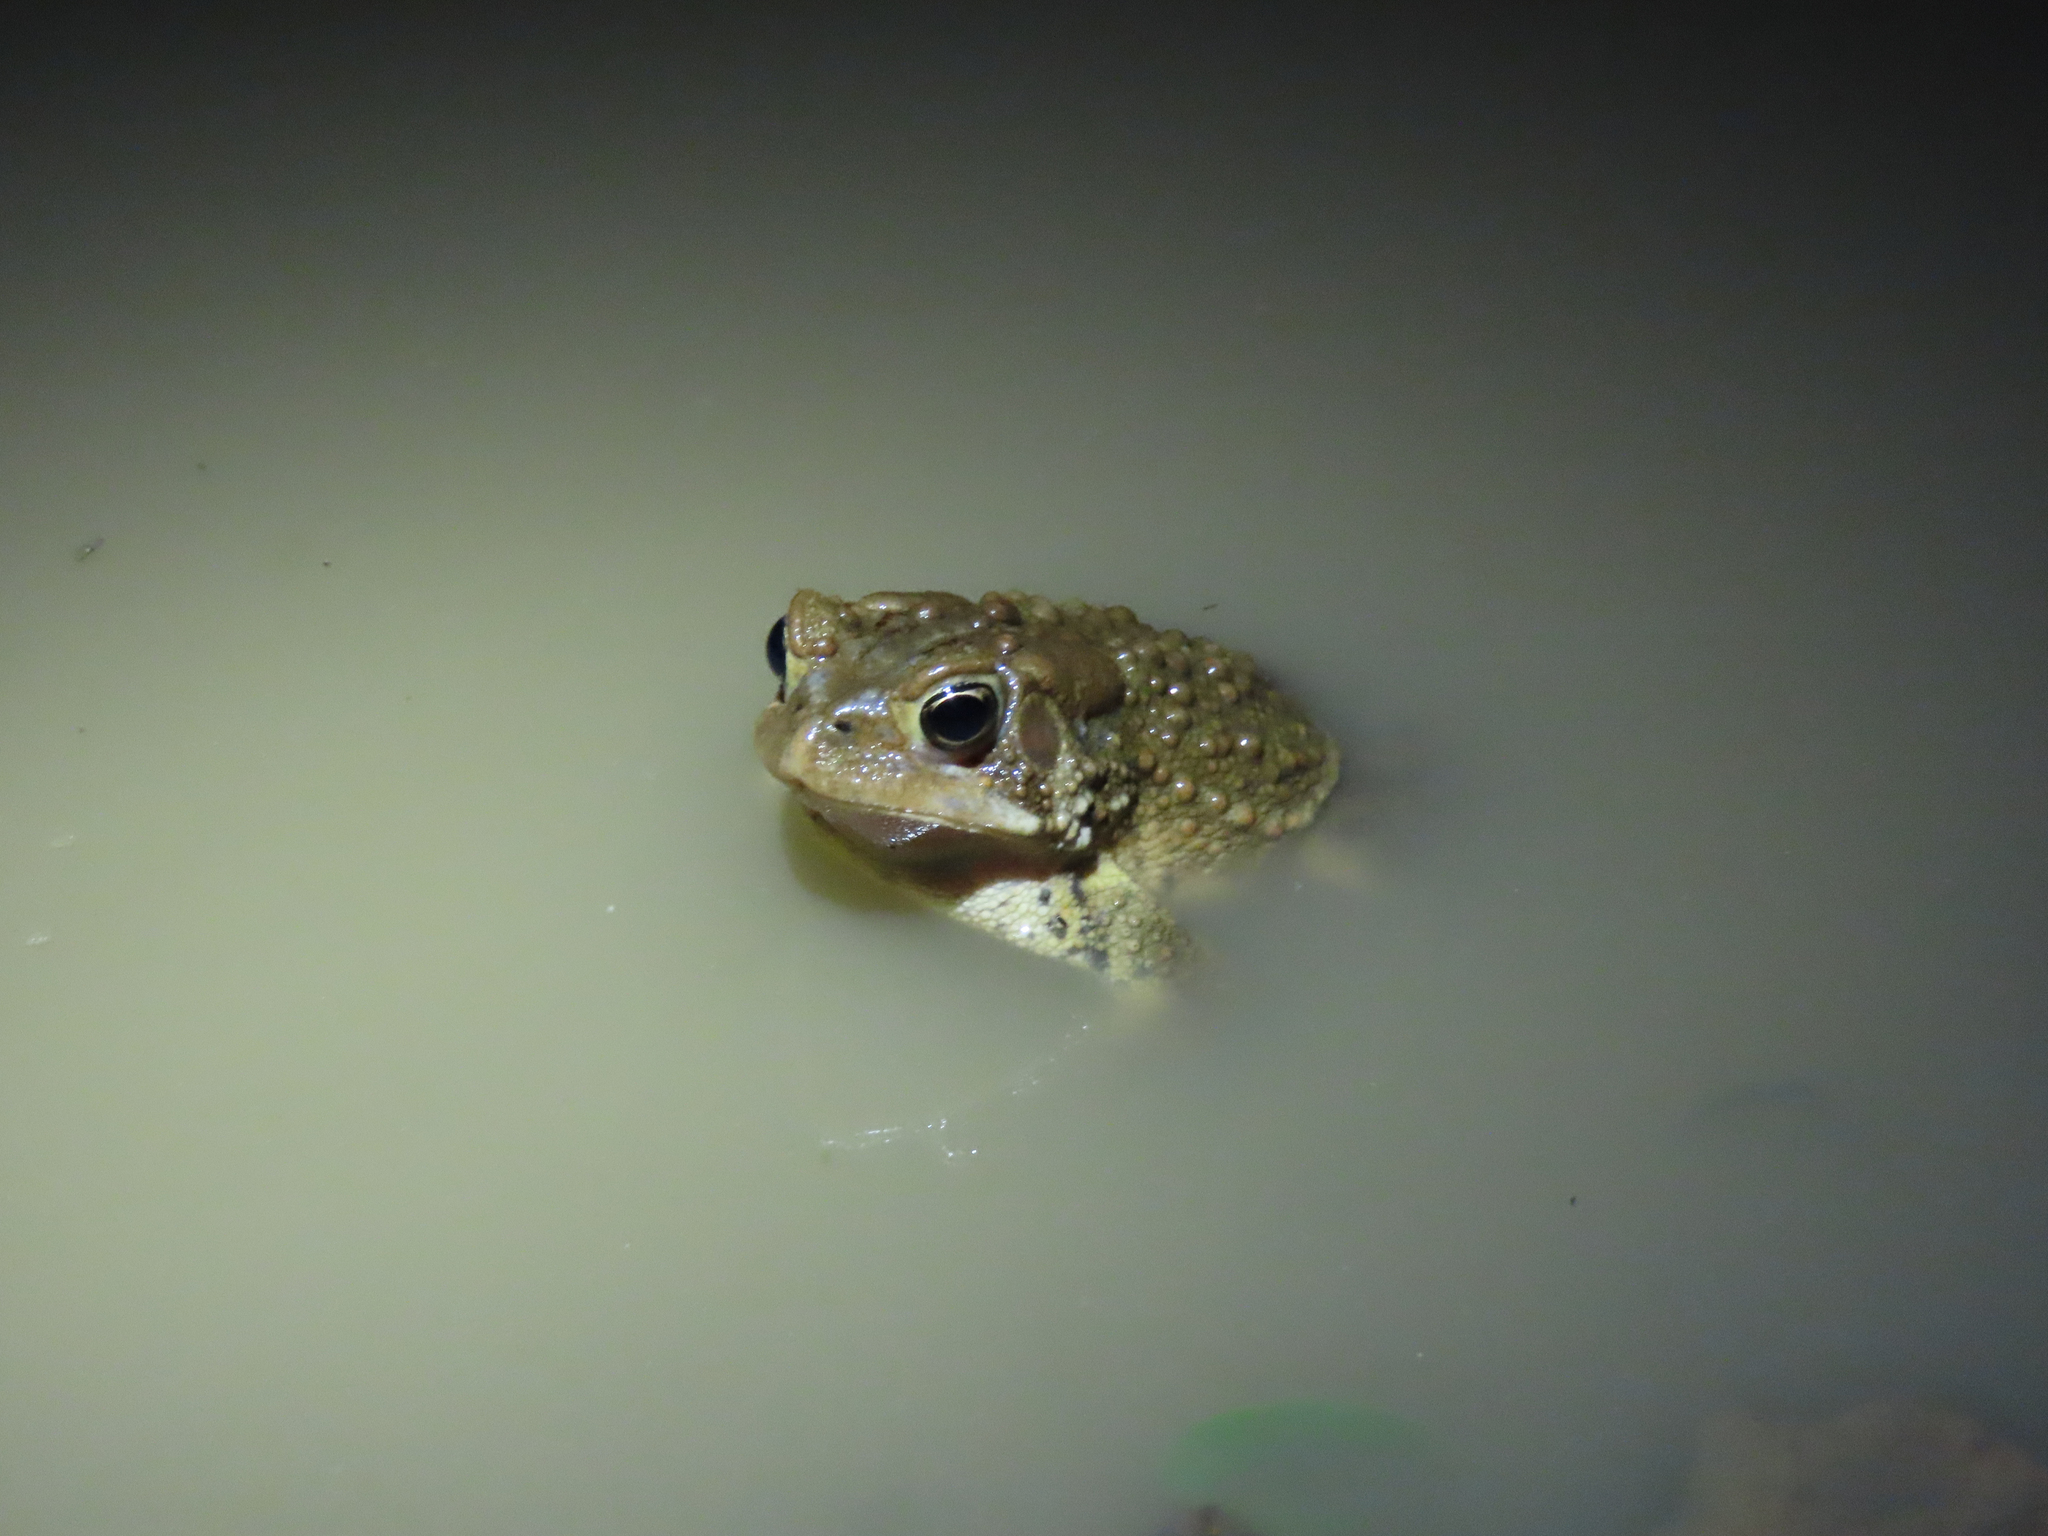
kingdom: Animalia
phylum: Chordata
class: Amphibia
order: Anura
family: Bufonidae
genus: Anaxyrus
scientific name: Anaxyrus americanus
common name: American toad
